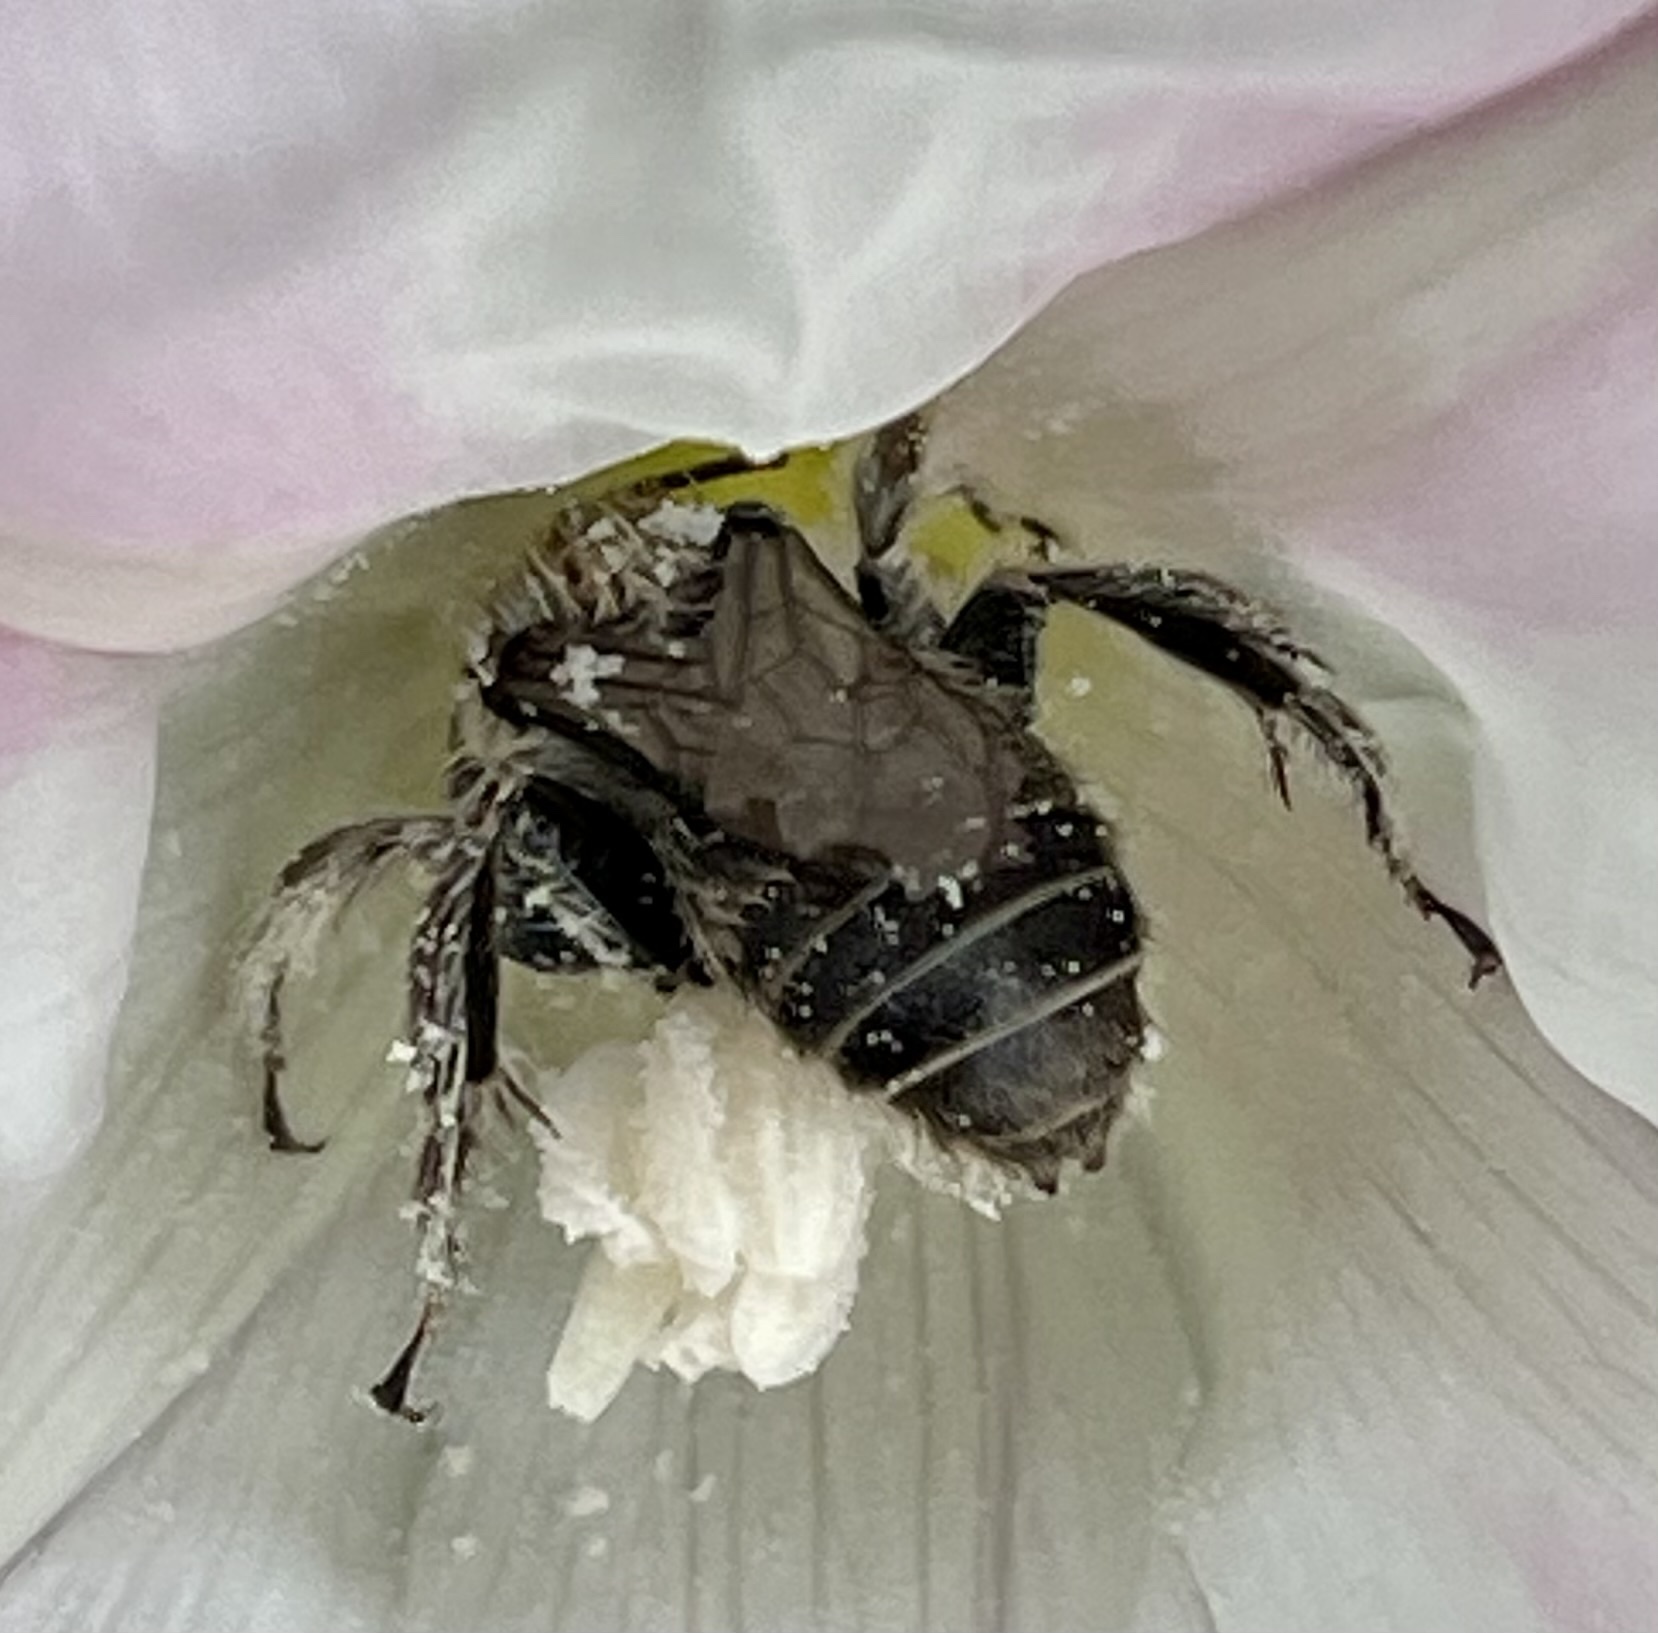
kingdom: Animalia
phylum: Arthropoda
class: Insecta
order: Hymenoptera
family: Apidae
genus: Diadasia
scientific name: Diadasia bituberculata
